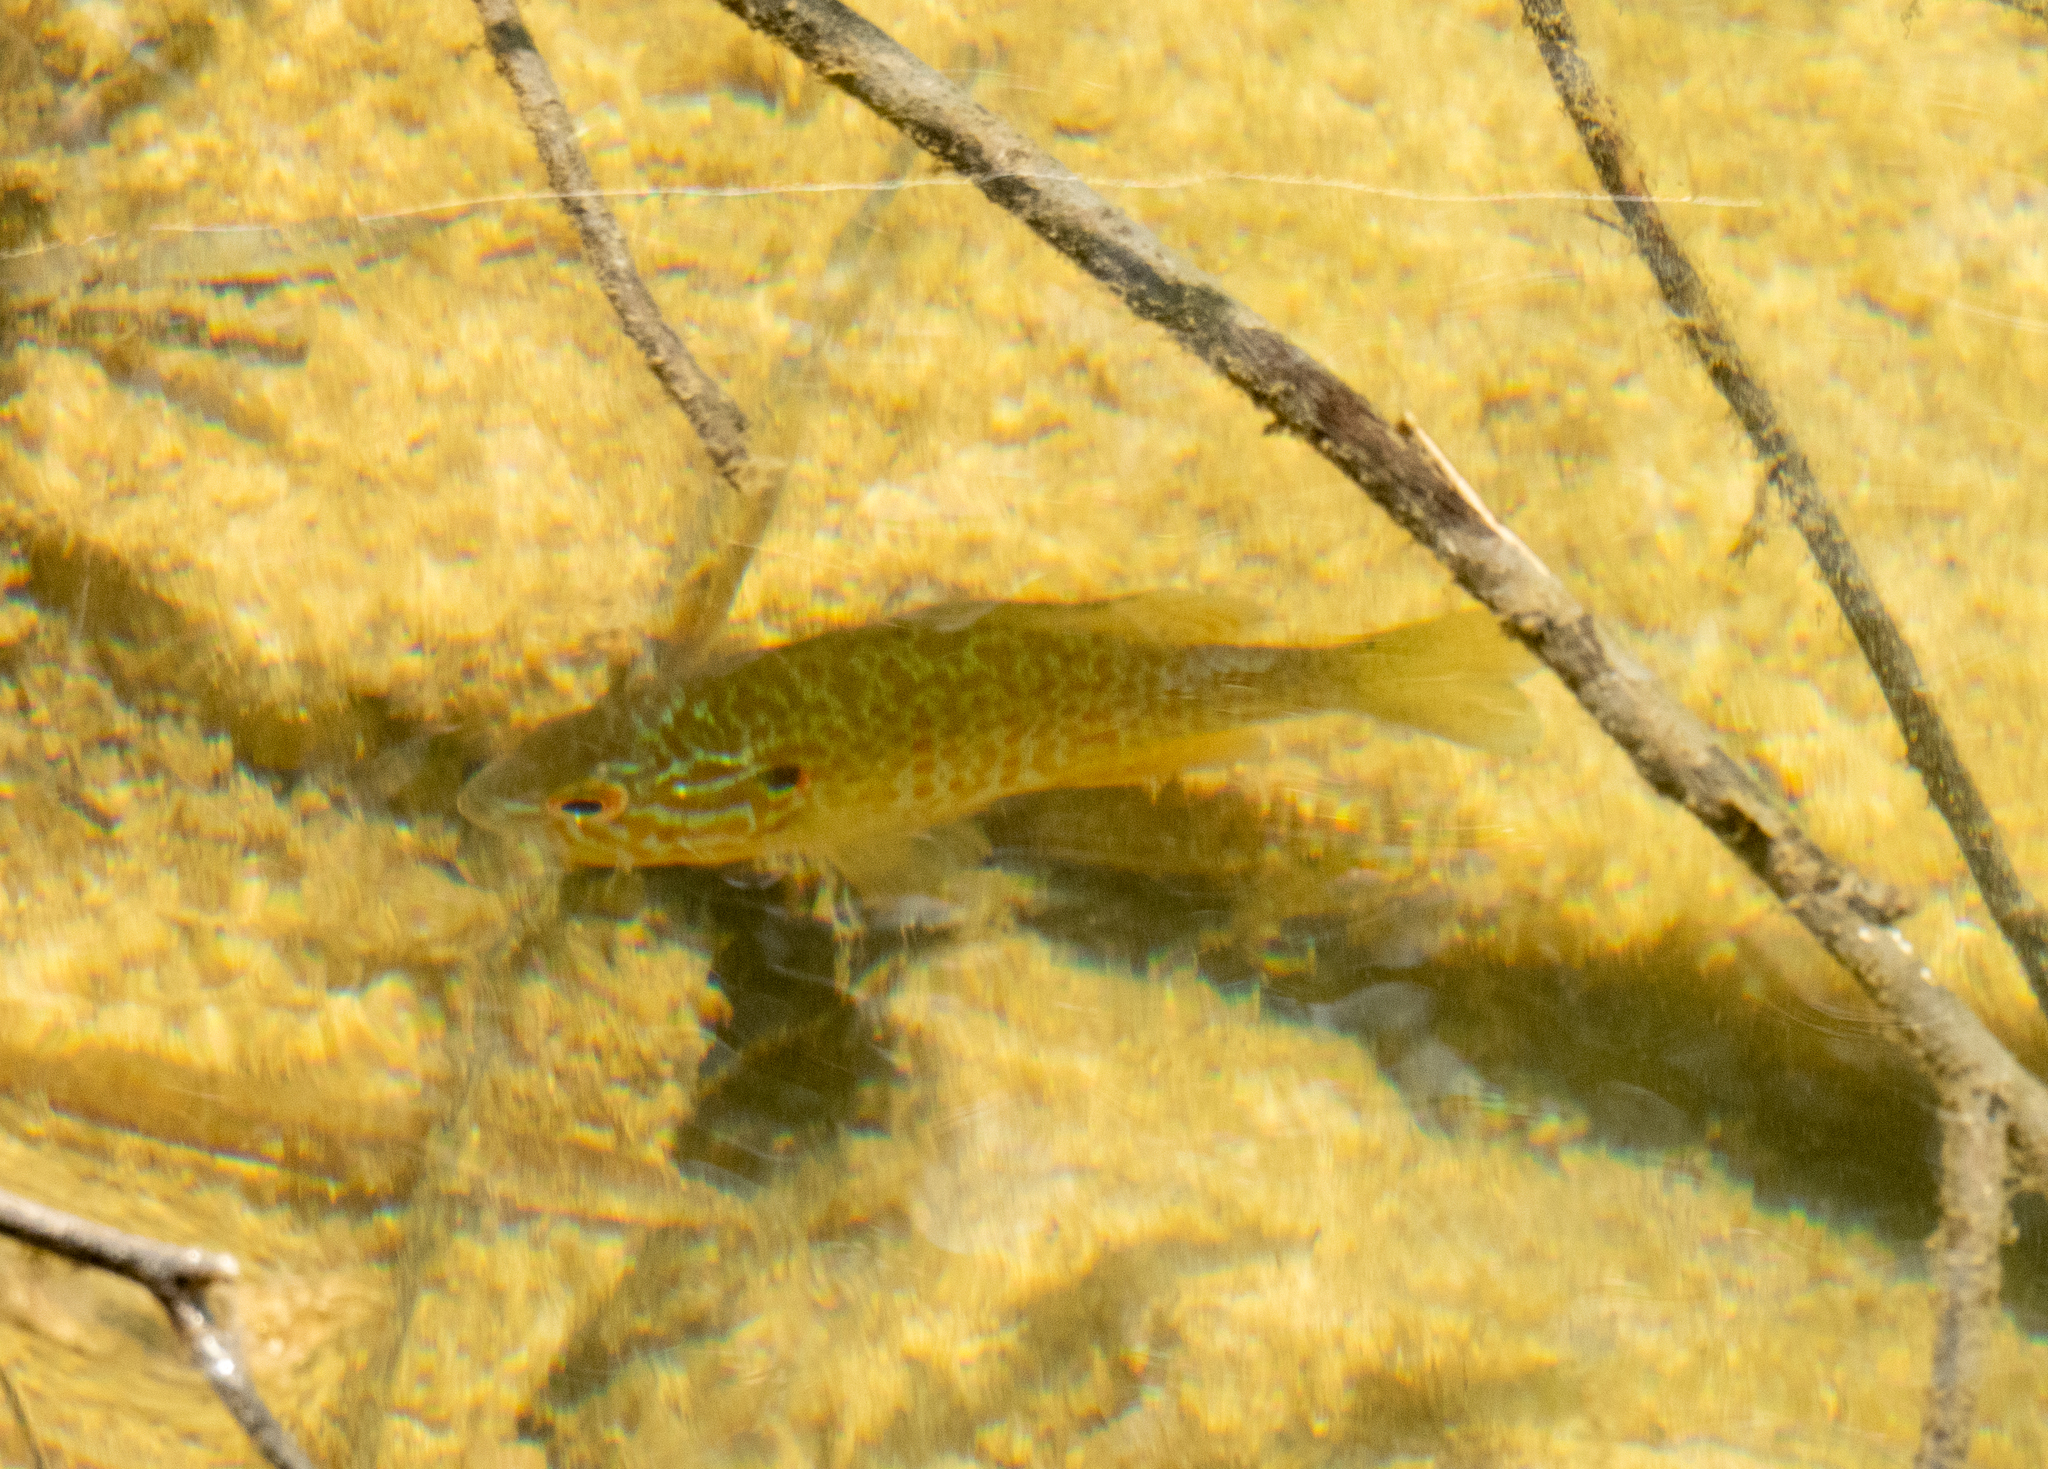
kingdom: Animalia
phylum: Chordata
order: Perciformes
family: Centrarchidae
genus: Lepomis
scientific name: Lepomis gibbosus
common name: Pumpkinseed
